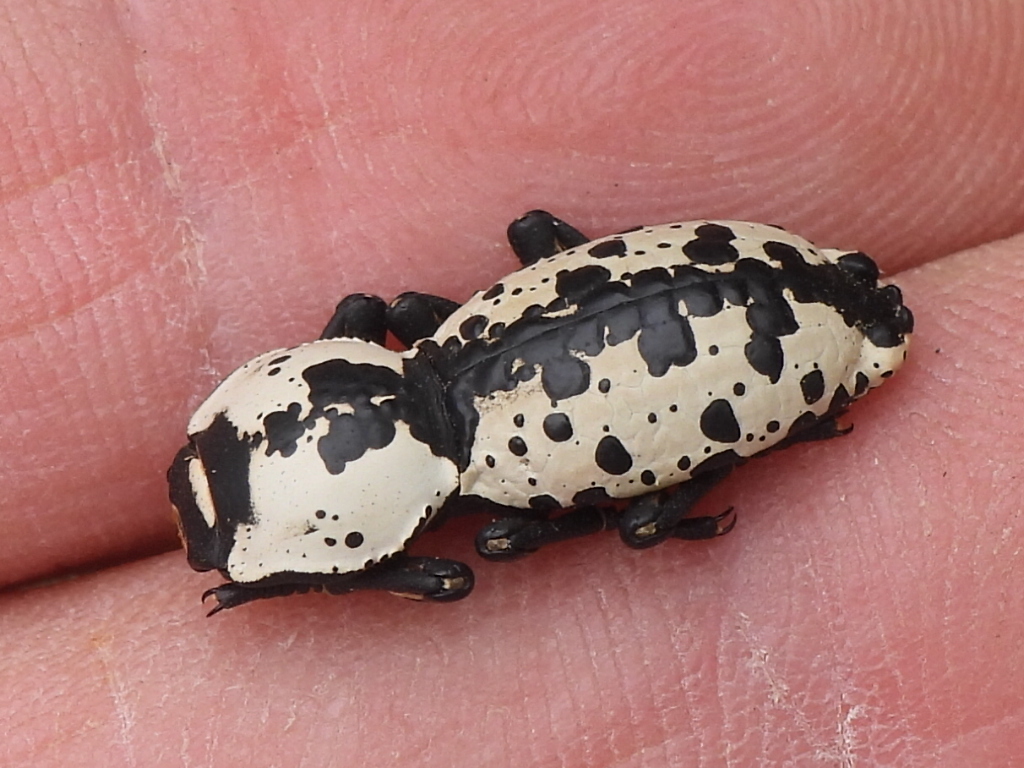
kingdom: Animalia
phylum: Arthropoda
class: Insecta
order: Coleoptera
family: Zopheridae
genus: Zopherus
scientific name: Zopherus nodulosus
